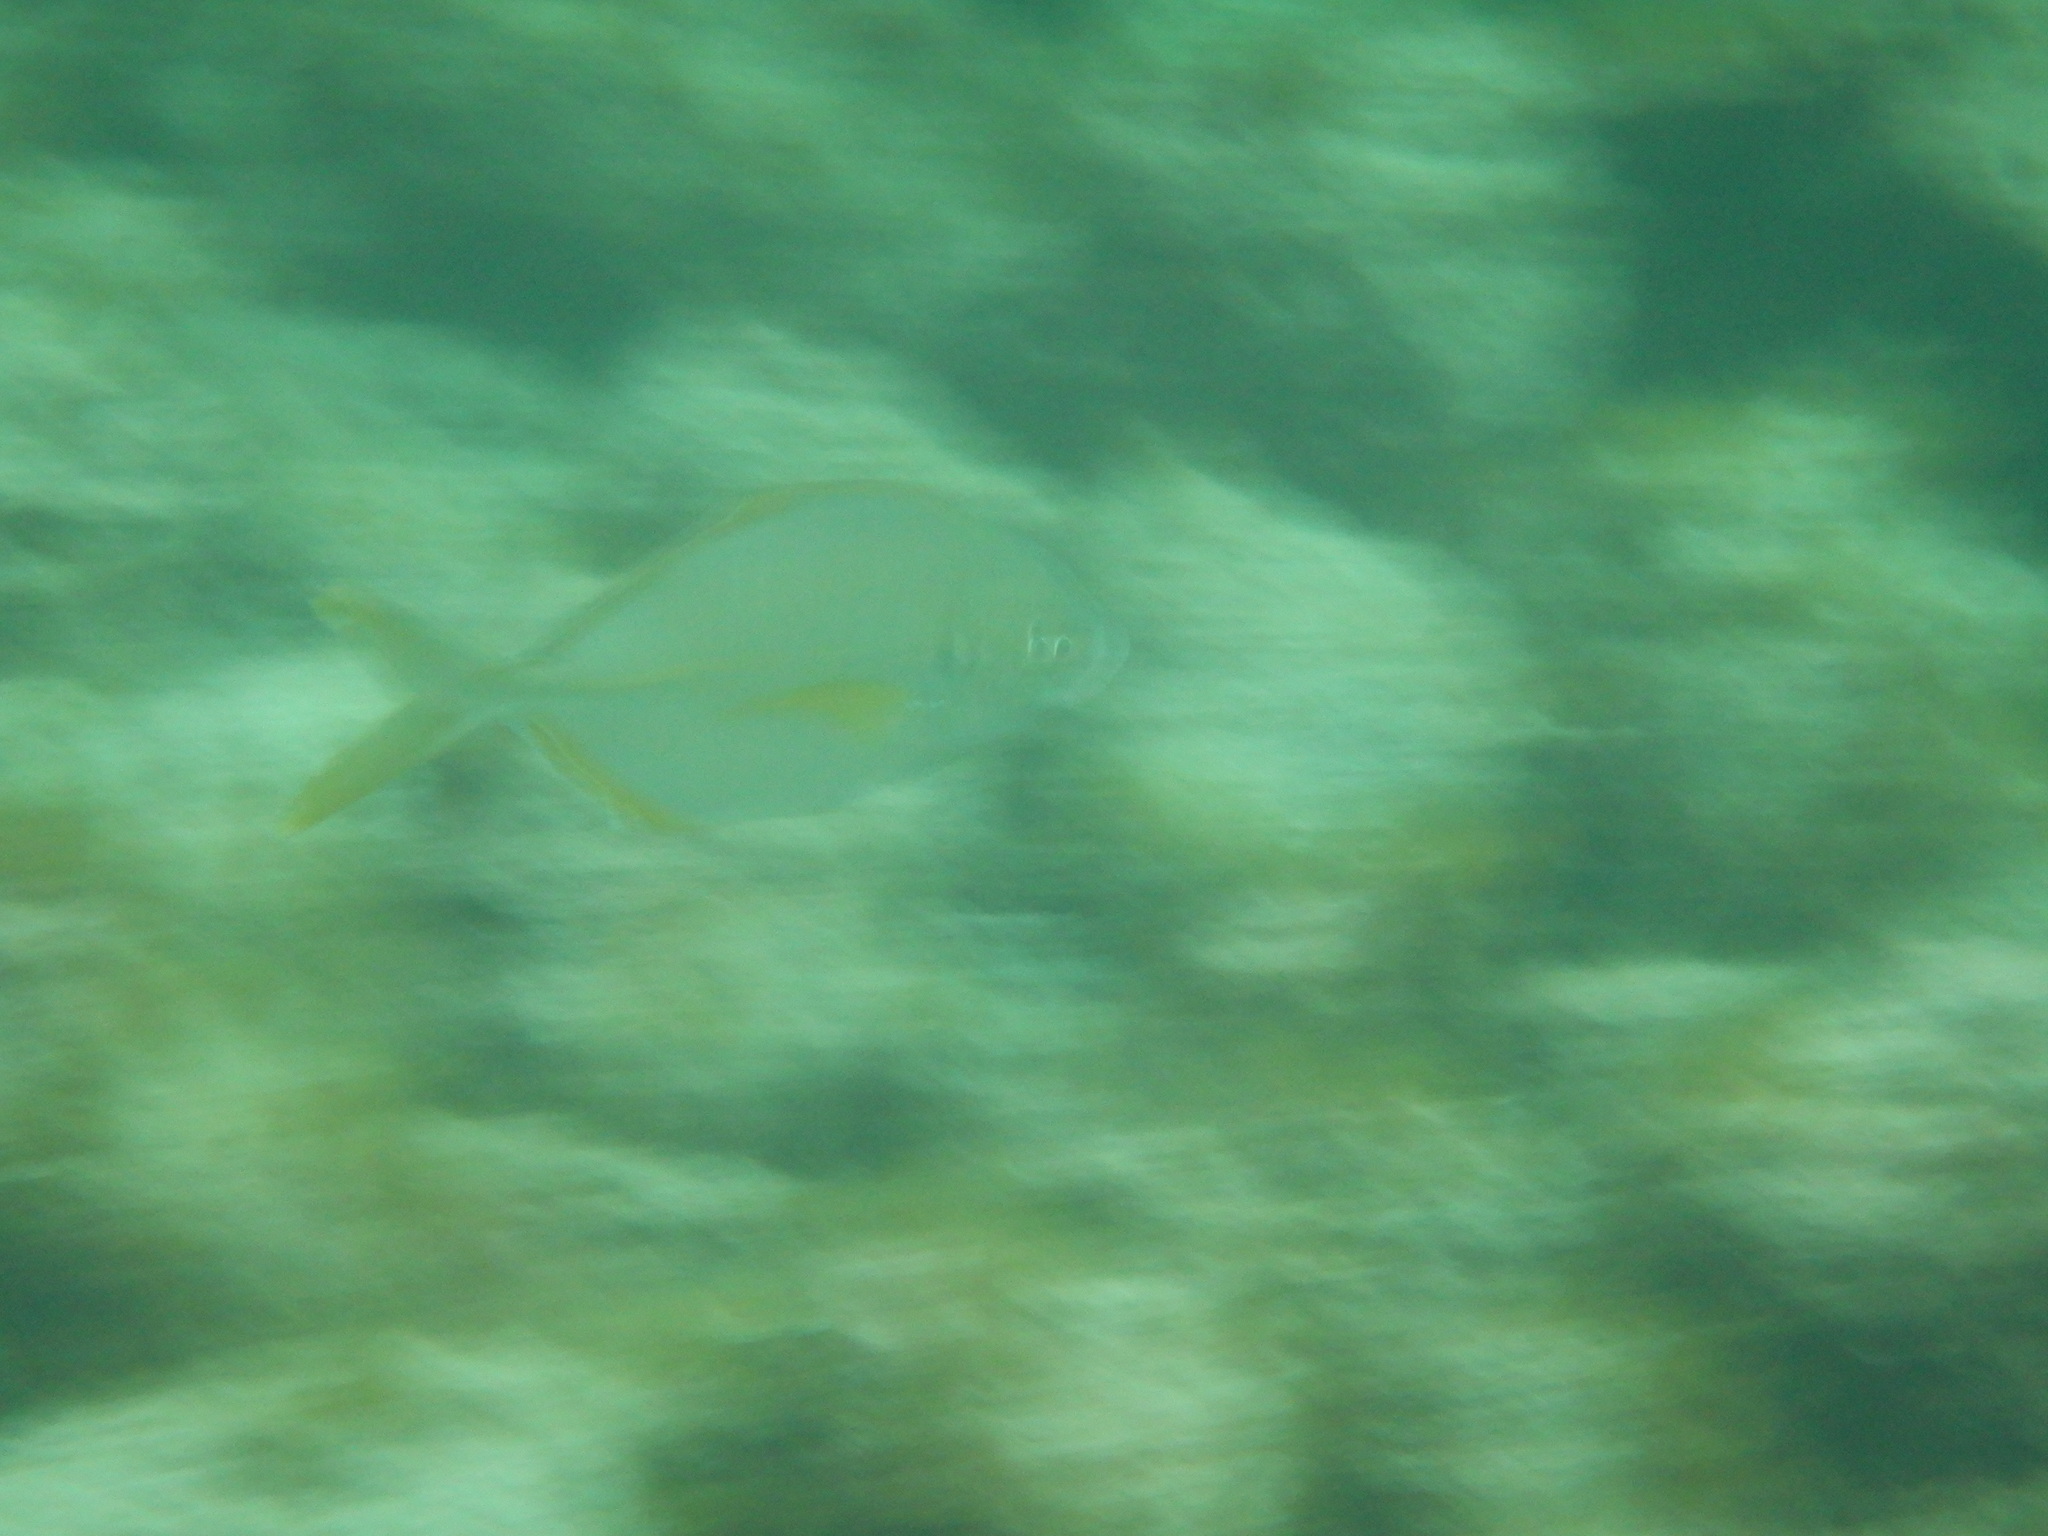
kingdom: Animalia
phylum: Chordata
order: Perciformes
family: Carangidae
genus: Pseudocaranx
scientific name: Pseudocaranx dentex
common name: White trevally
